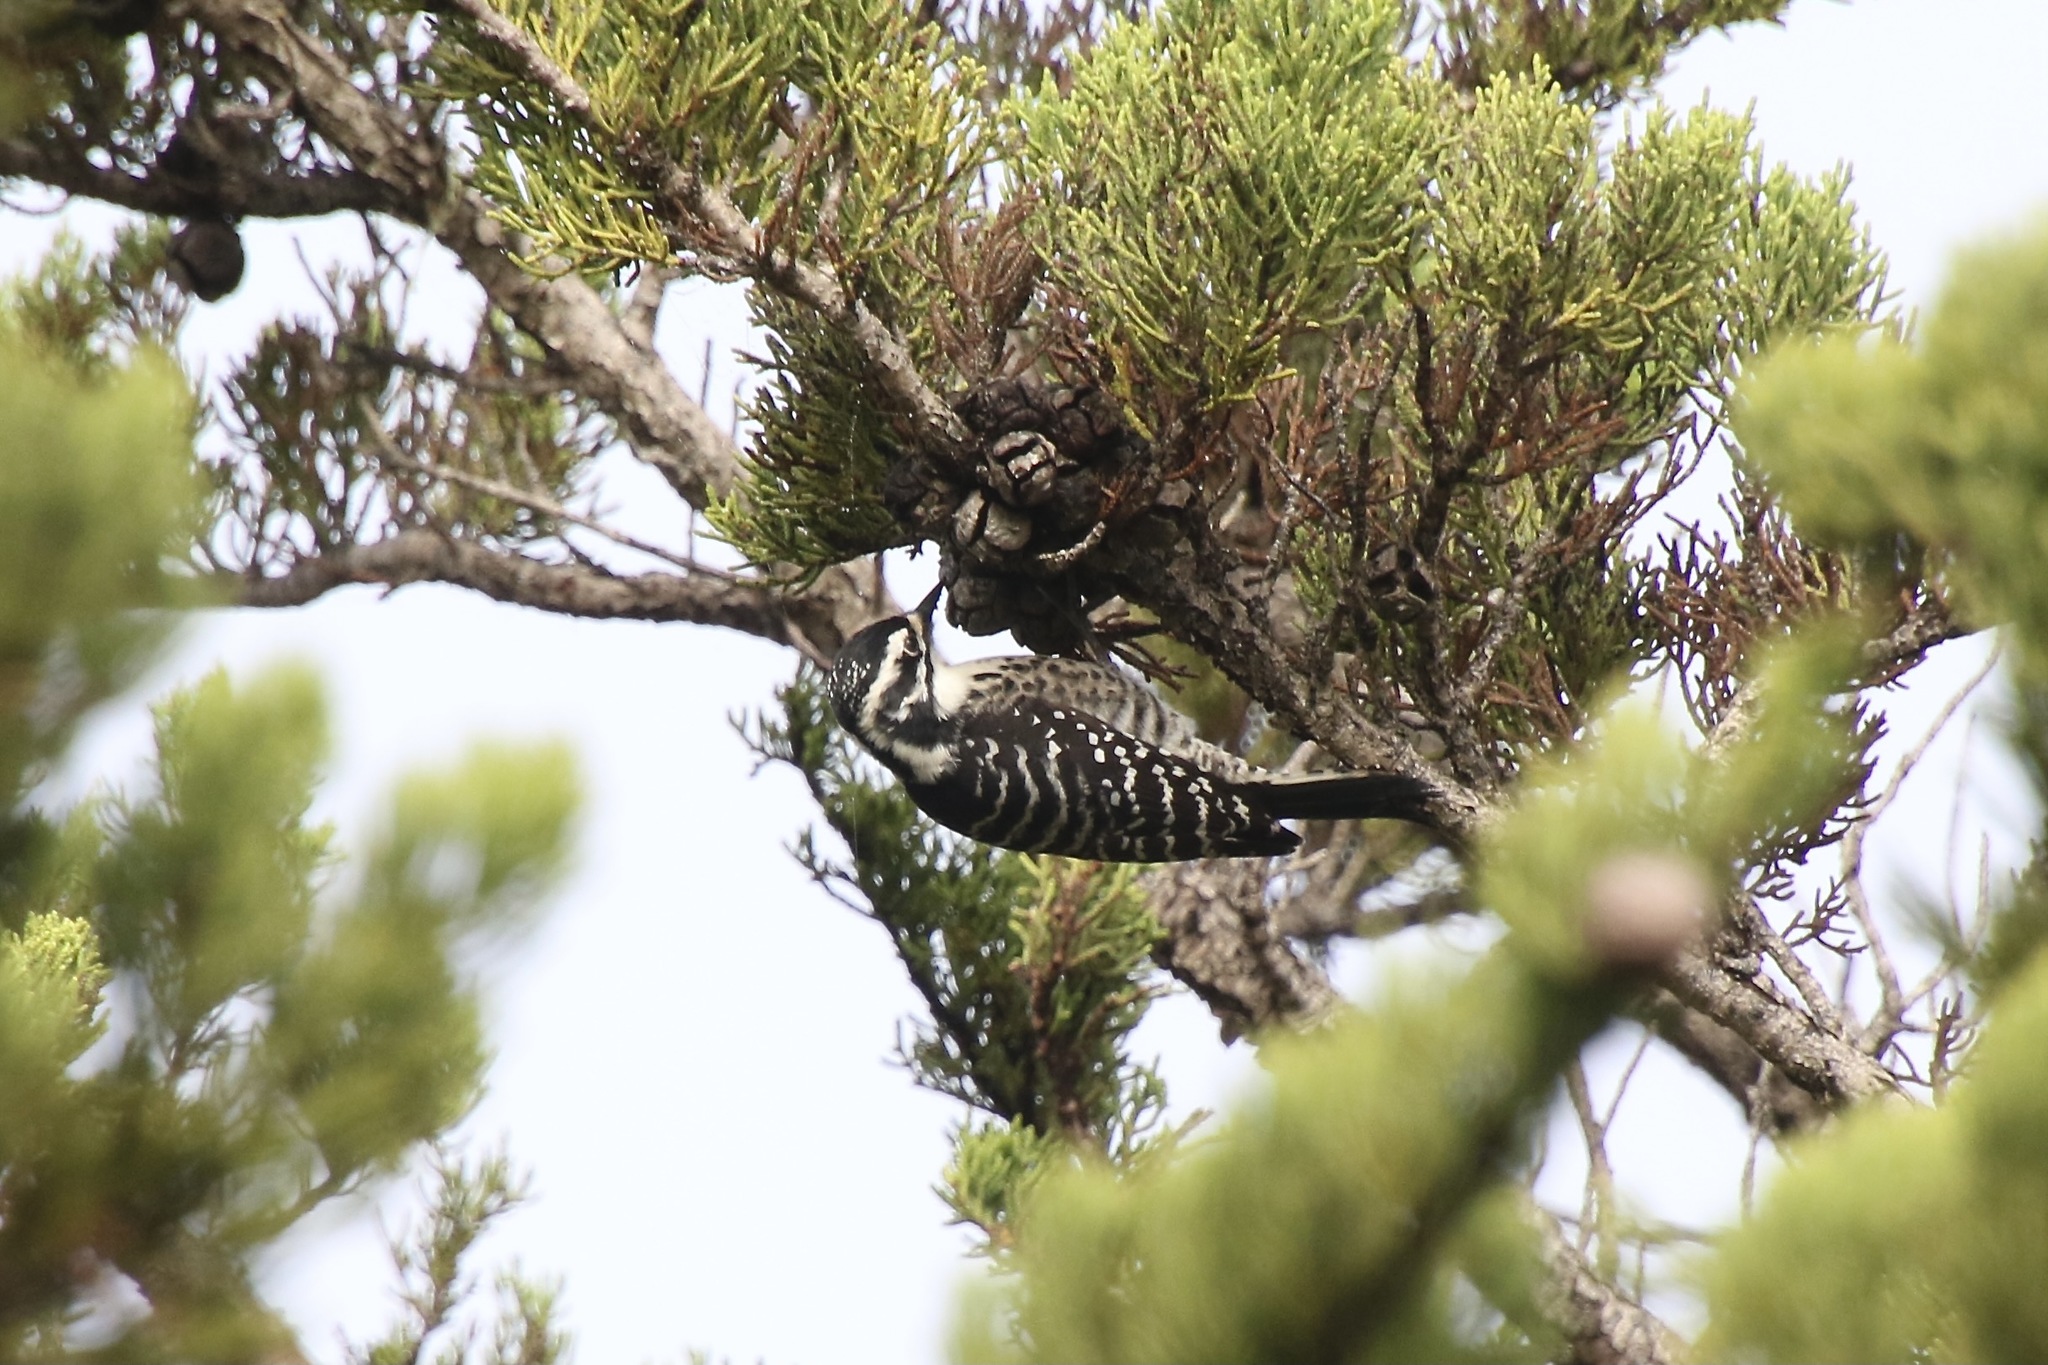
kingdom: Animalia
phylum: Chordata
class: Aves
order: Piciformes
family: Picidae
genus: Dryobates
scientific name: Dryobates nuttallii
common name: Nuttall's woodpecker
